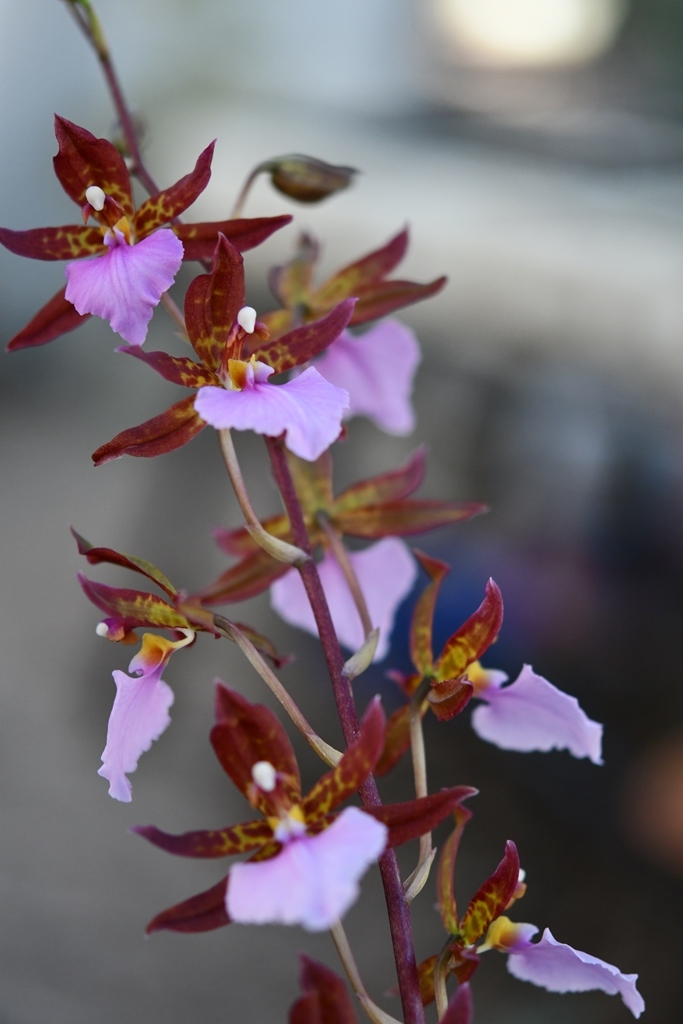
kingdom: Plantae
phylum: Tracheophyta
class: Liliopsida
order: Asparagales
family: Orchidaceae
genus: Rhynchostele
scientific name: Rhynchostele bictoniensis
